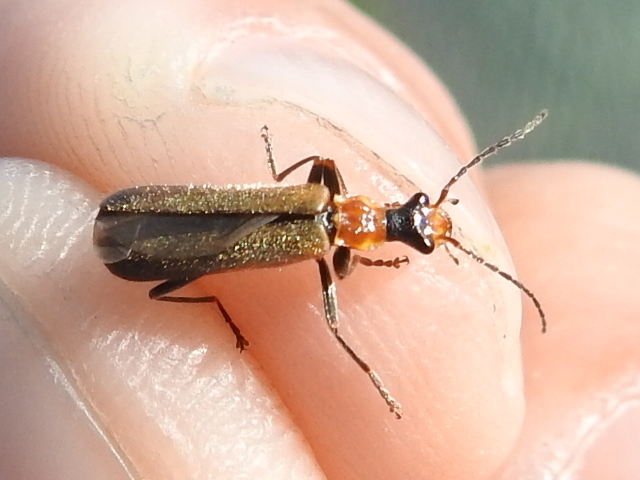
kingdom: Animalia
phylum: Arthropoda
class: Insecta
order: Coleoptera
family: Cantharidae
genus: Dichelotarsus
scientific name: Dichelotarsus cavicollis
